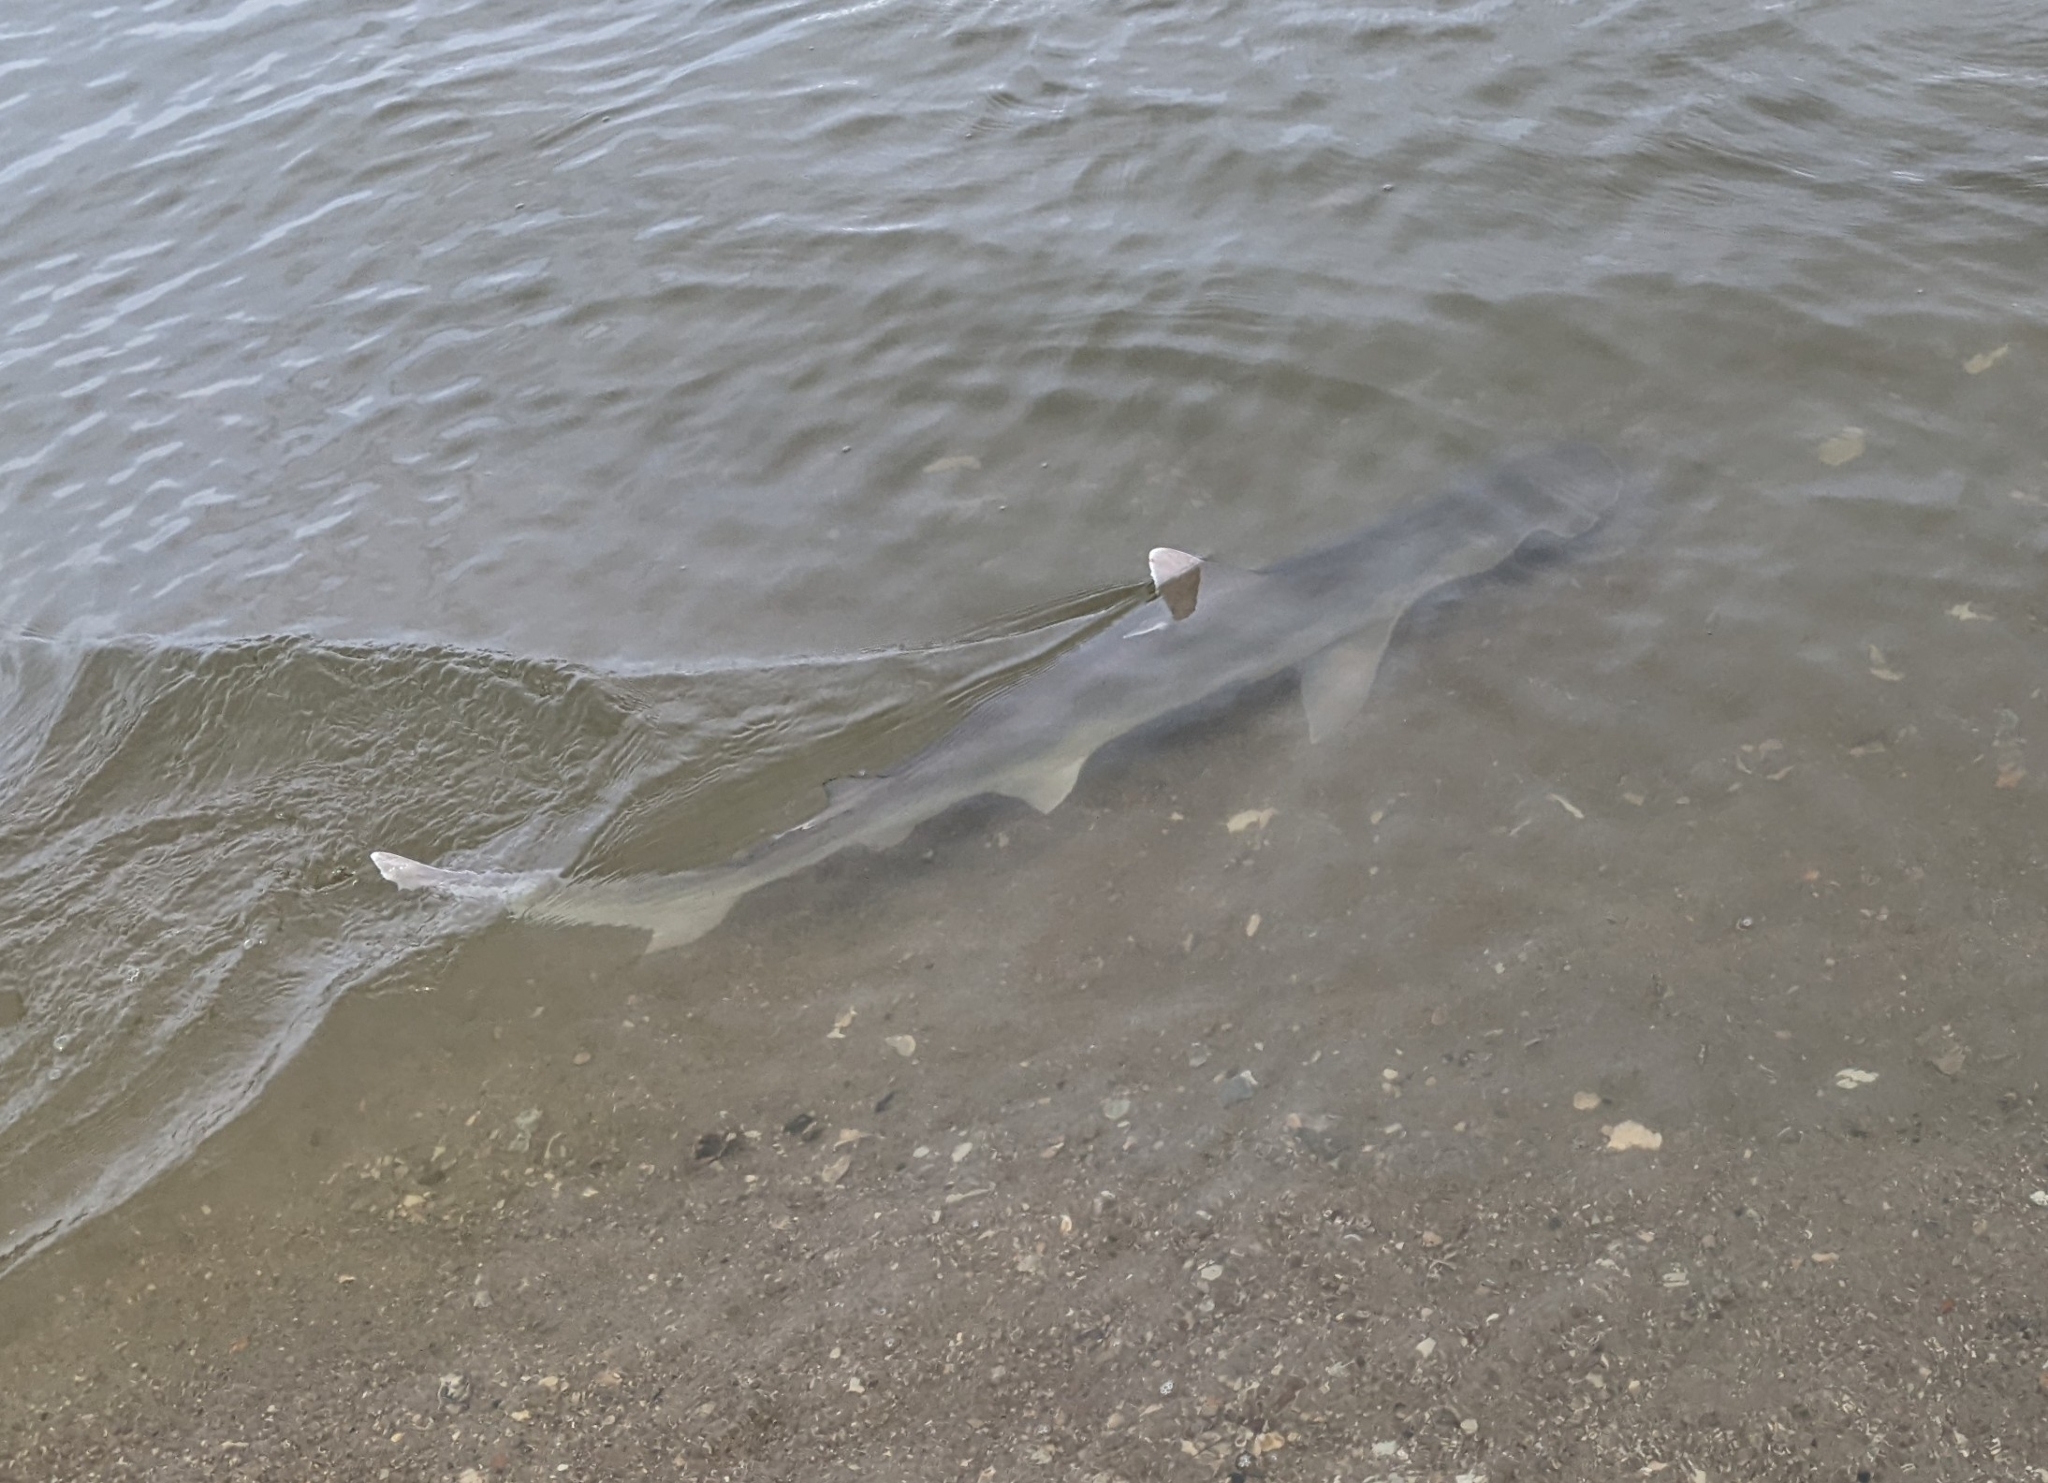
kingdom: Animalia
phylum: Chordata
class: Elasmobranchii
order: Carcharhiniformes
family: Sphyrnidae
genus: Sphyrna
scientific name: Sphyrna tiburo
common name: Bonnethead
